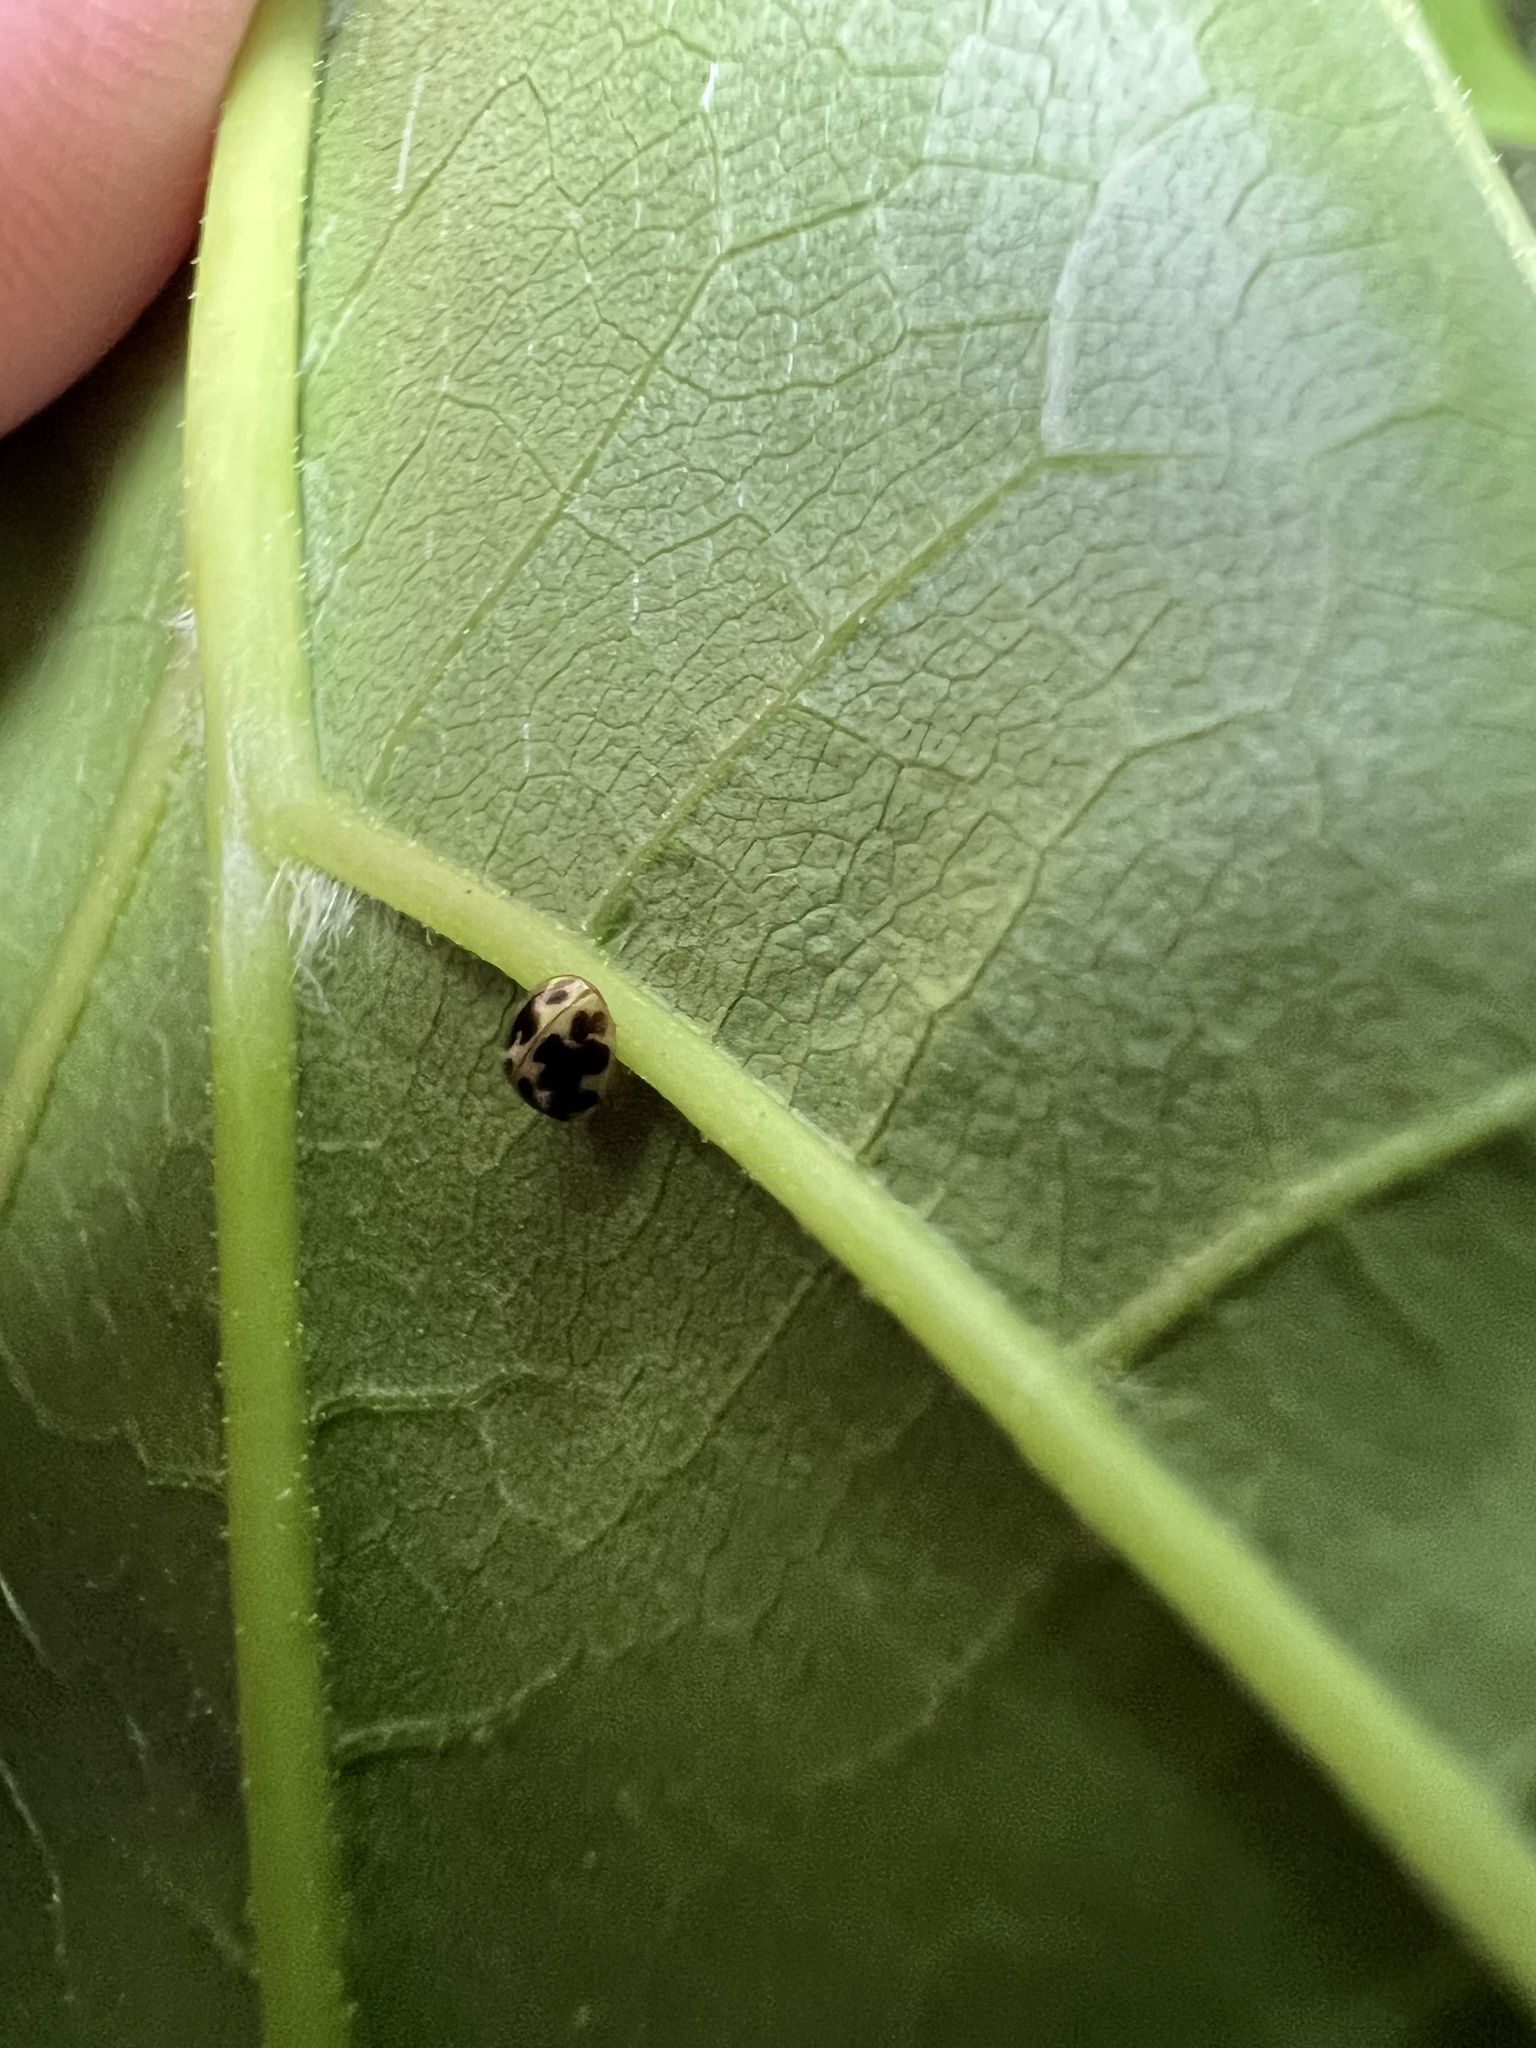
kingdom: Animalia
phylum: Arthropoda
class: Insecta
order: Coleoptera
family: Coccinellidae
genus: Psyllobora
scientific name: Psyllobora vigintimaculata
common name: Ladybird beetle
